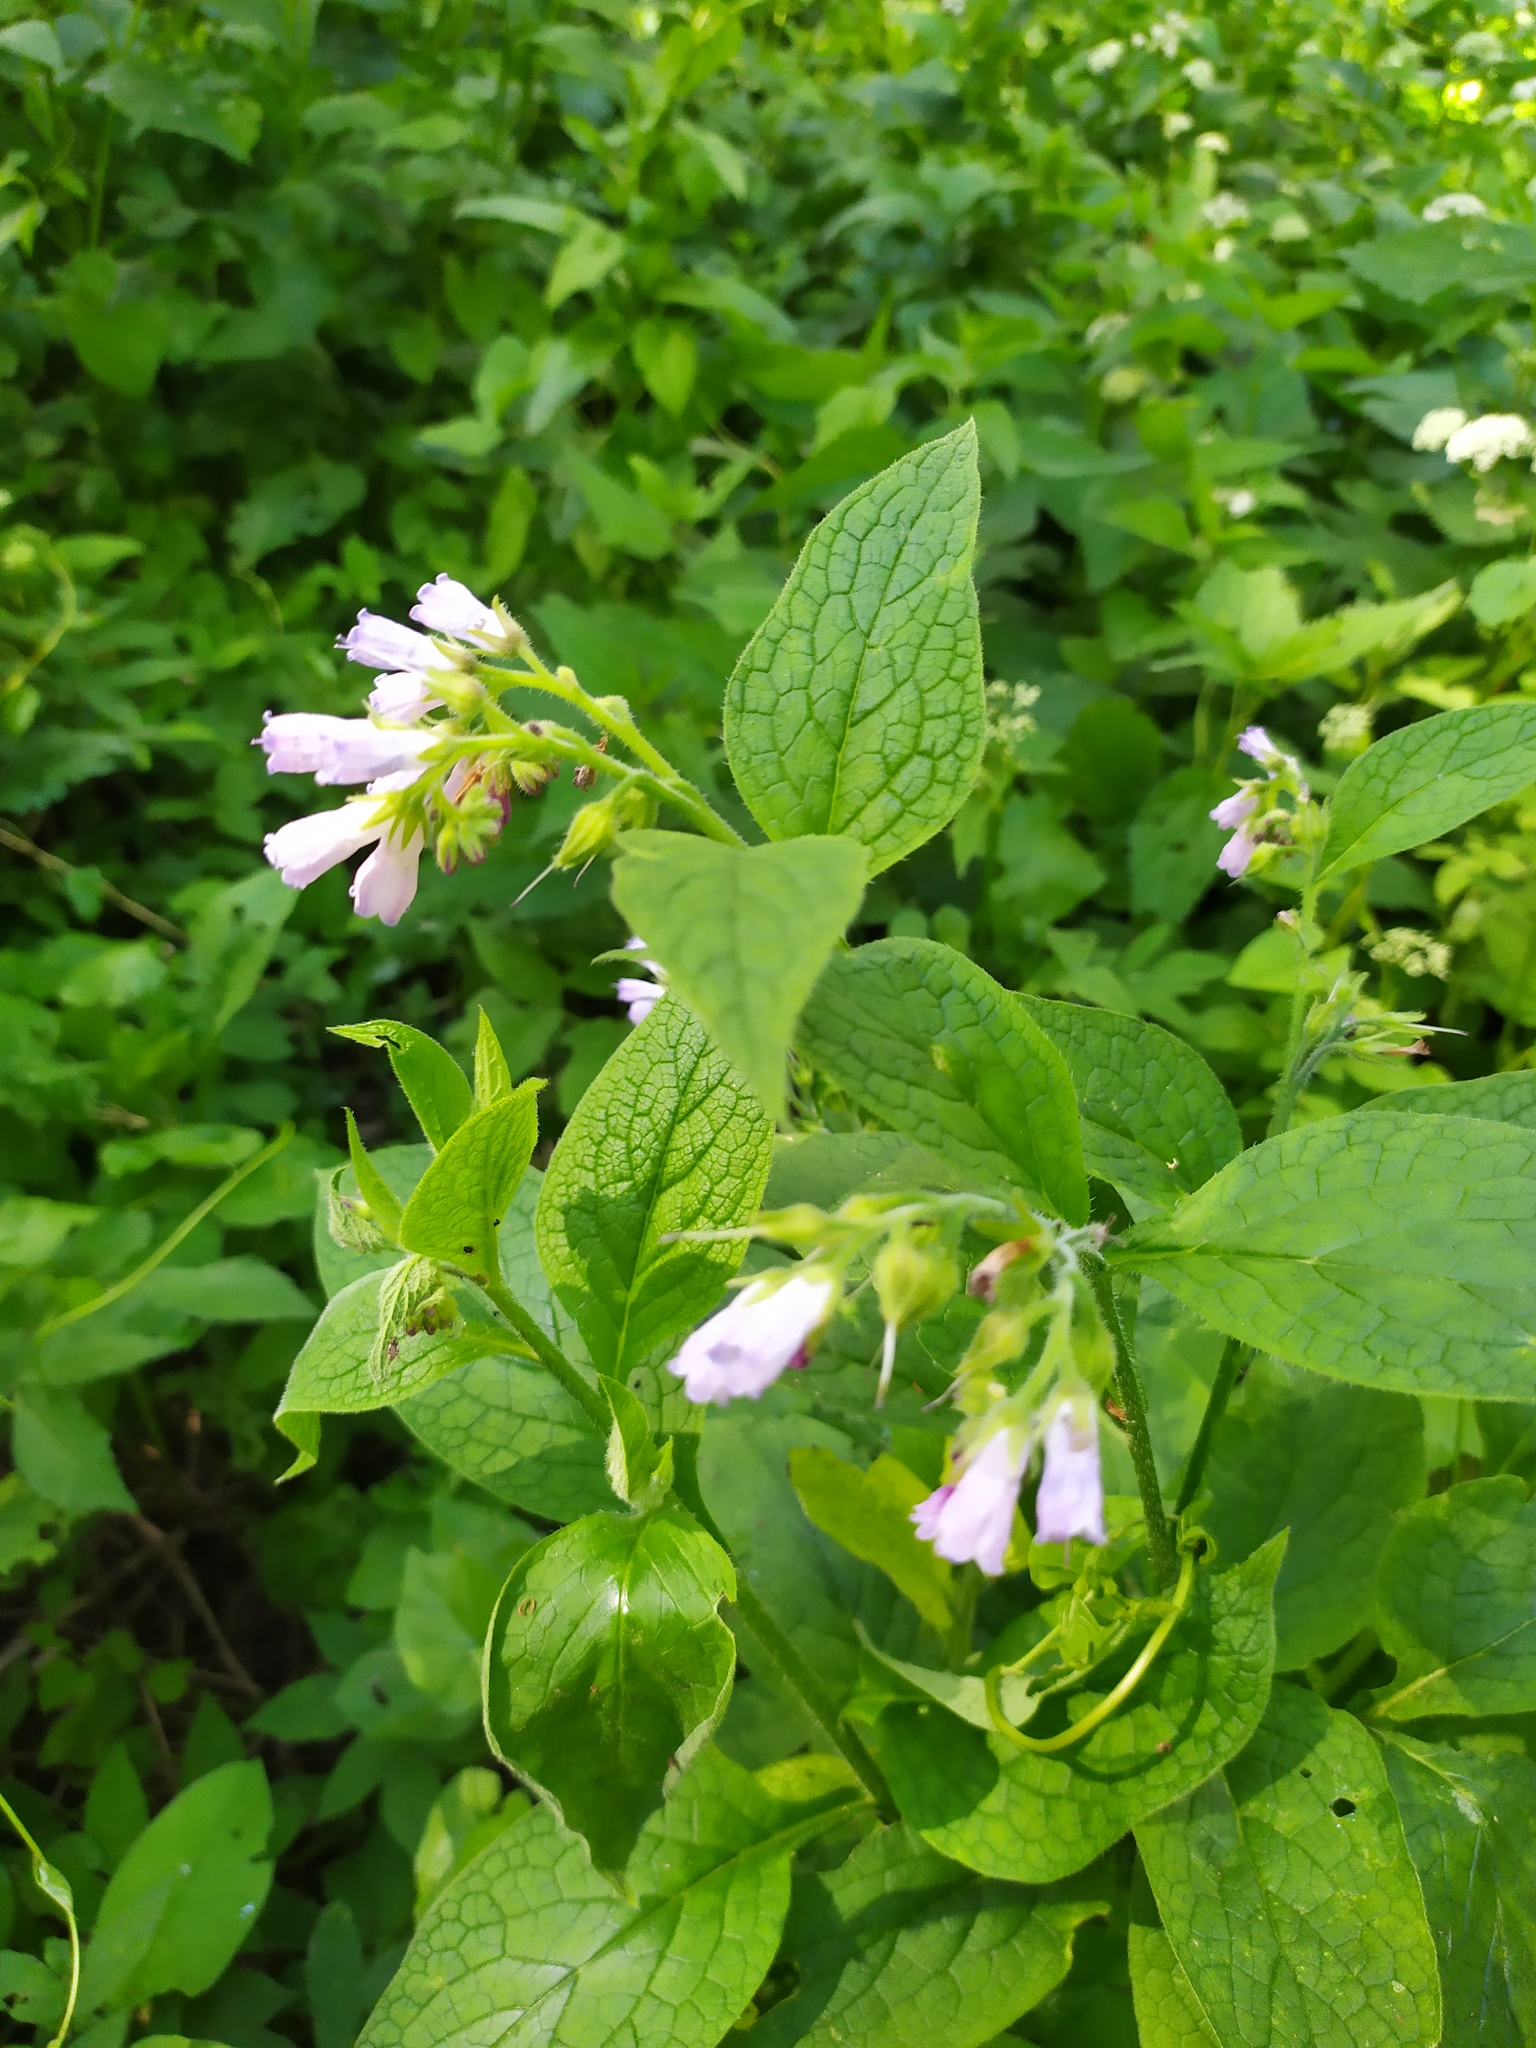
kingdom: Plantae
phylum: Tracheophyta
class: Magnoliopsida
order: Boraginales
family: Boraginaceae
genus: Symphytum
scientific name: Symphytum uplandicum
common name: Russian comfrey
